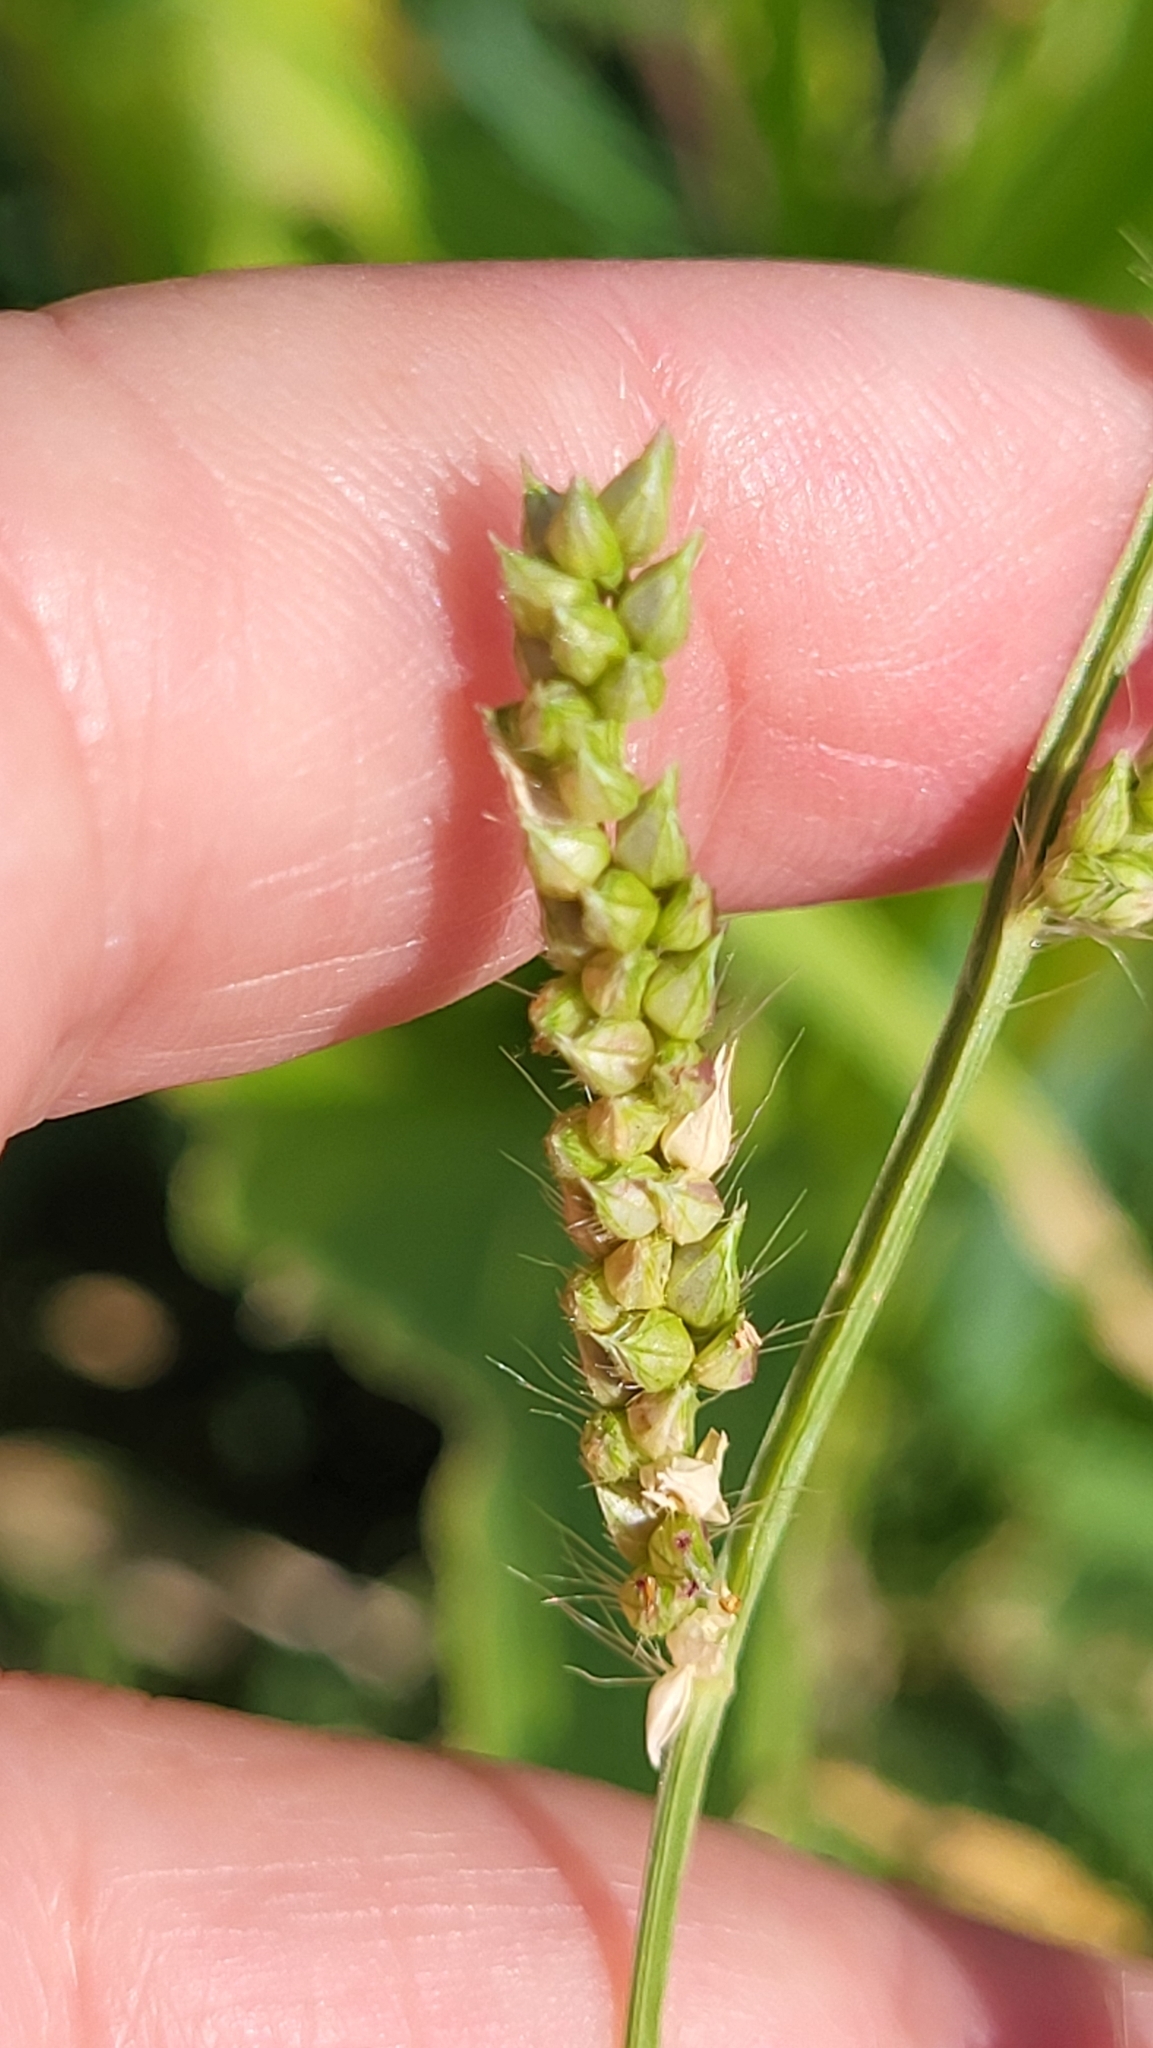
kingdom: Plantae
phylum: Tracheophyta
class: Liliopsida
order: Poales
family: Poaceae
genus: Echinochloa
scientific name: Echinochloa
